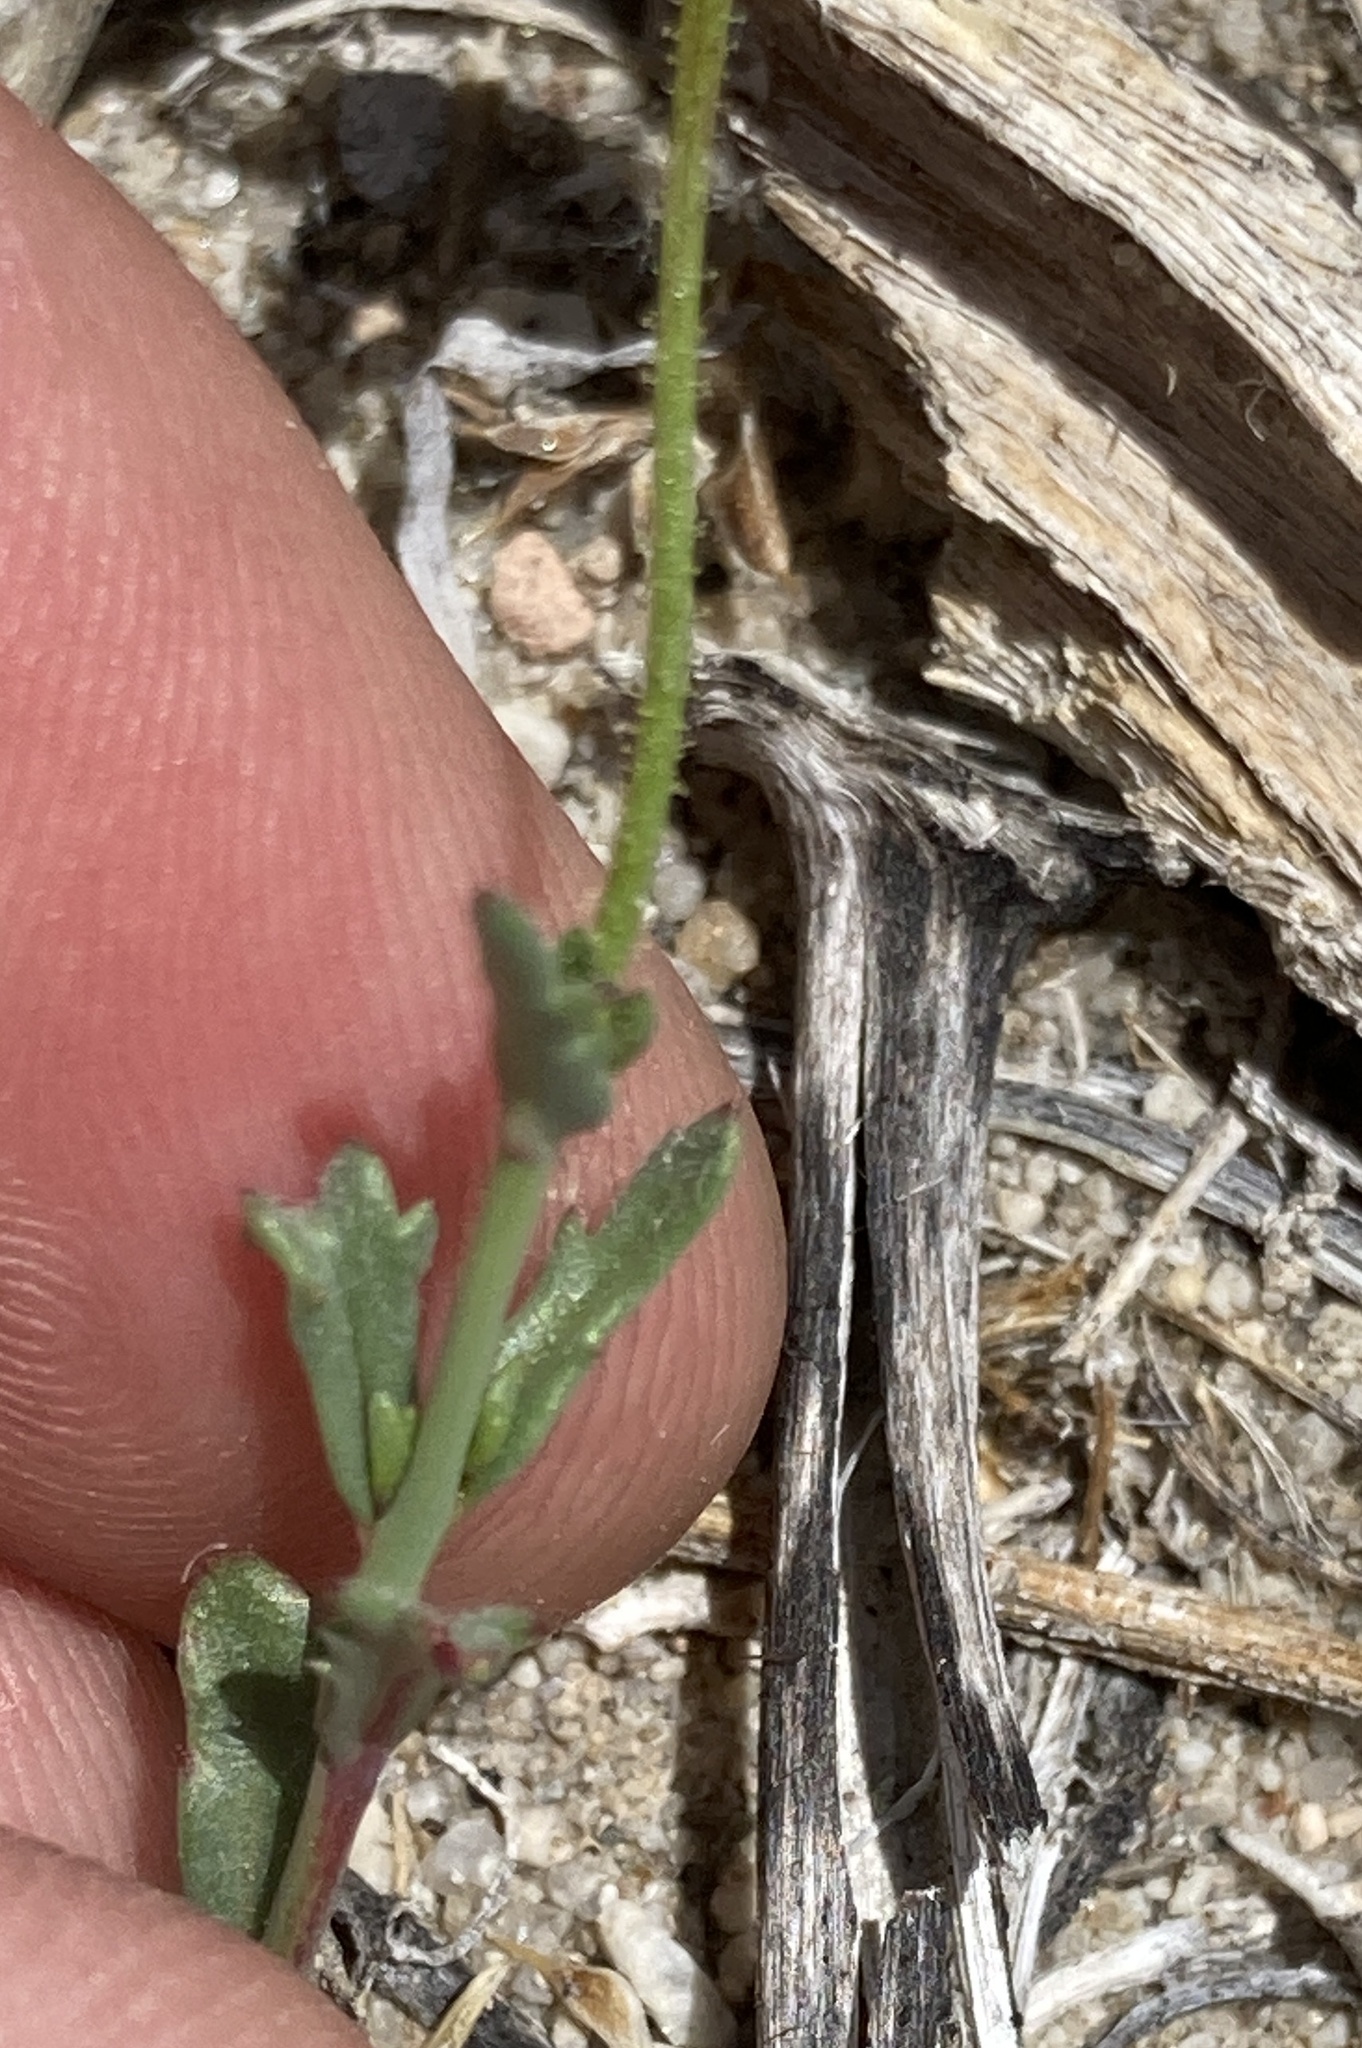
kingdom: Plantae
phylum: Tracheophyta
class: Magnoliopsida
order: Ericales
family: Polemoniaceae
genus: Gilia
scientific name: Gilia sinuata
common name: Rosy gilia
